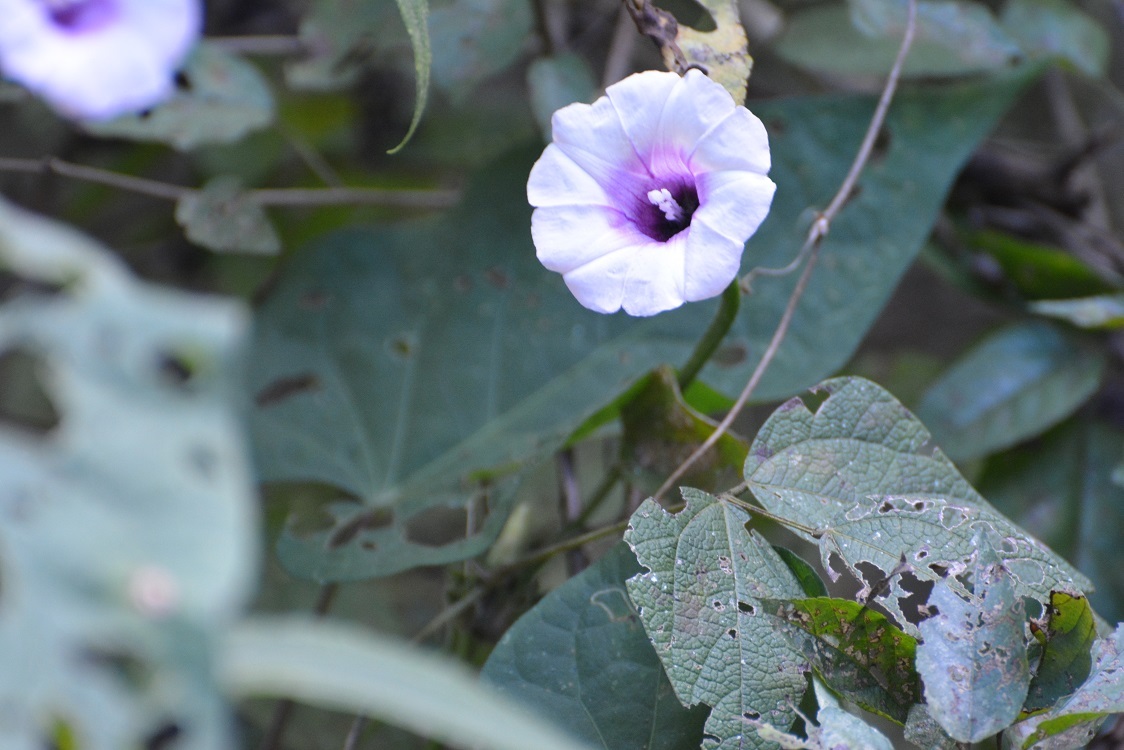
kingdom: Plantae
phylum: Tracheophyta
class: Magnoliopsida
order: Solanales
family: Convolvulaceae
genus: Ipomoea
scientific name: Ipomoea batatas
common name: Sweet-potato
